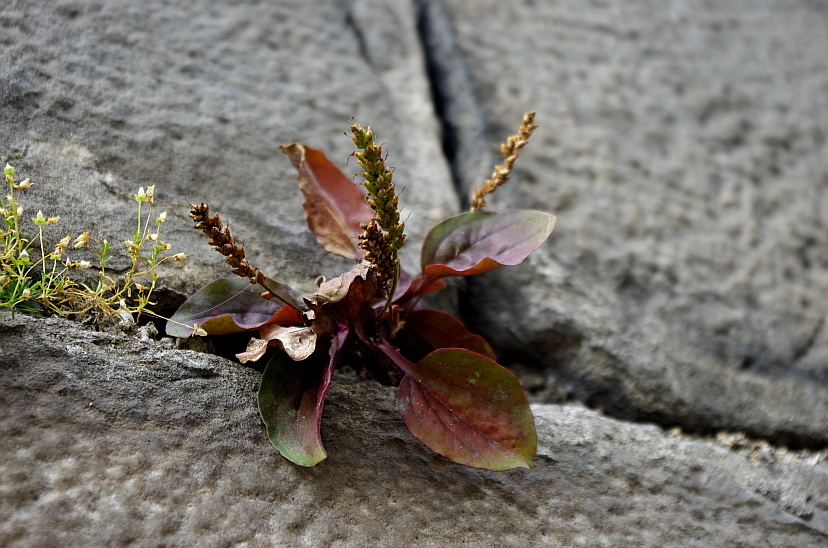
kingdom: Plantae
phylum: Tracheophyta
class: Magnoliopsida
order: Lamiales
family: Plantaginaceae
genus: Plantago
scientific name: Plantago major
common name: Common plantain
